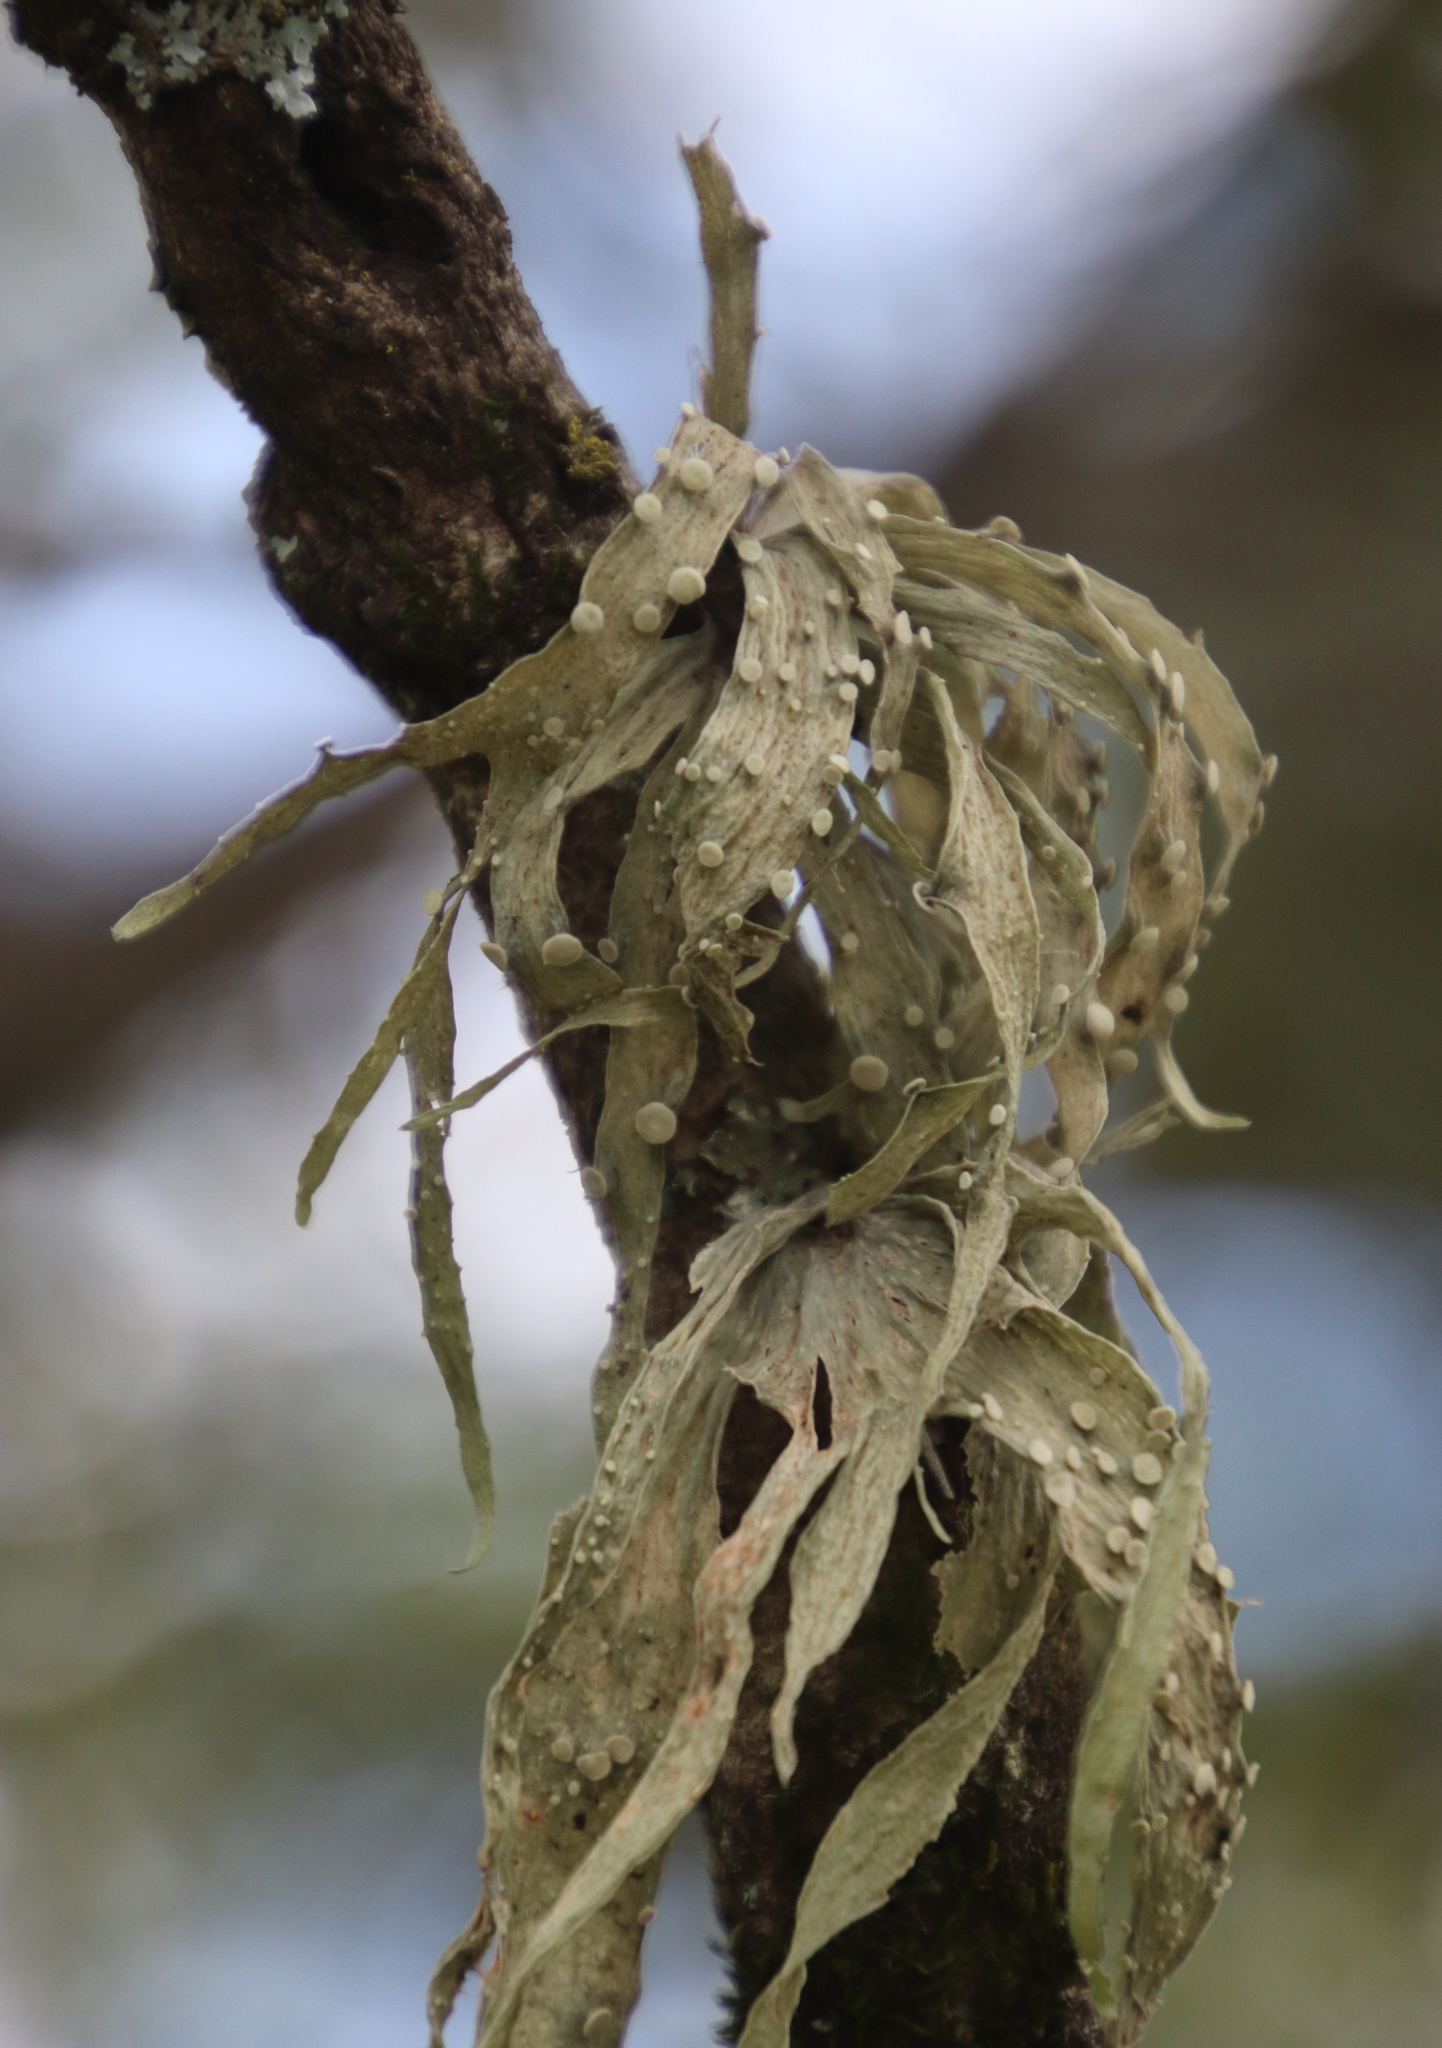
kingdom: Fungi
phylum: Ascomycota
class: Lecanoromycetes
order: Lecanorales
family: Ramalinaceae
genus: Ramalina
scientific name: Ramalina celastri
